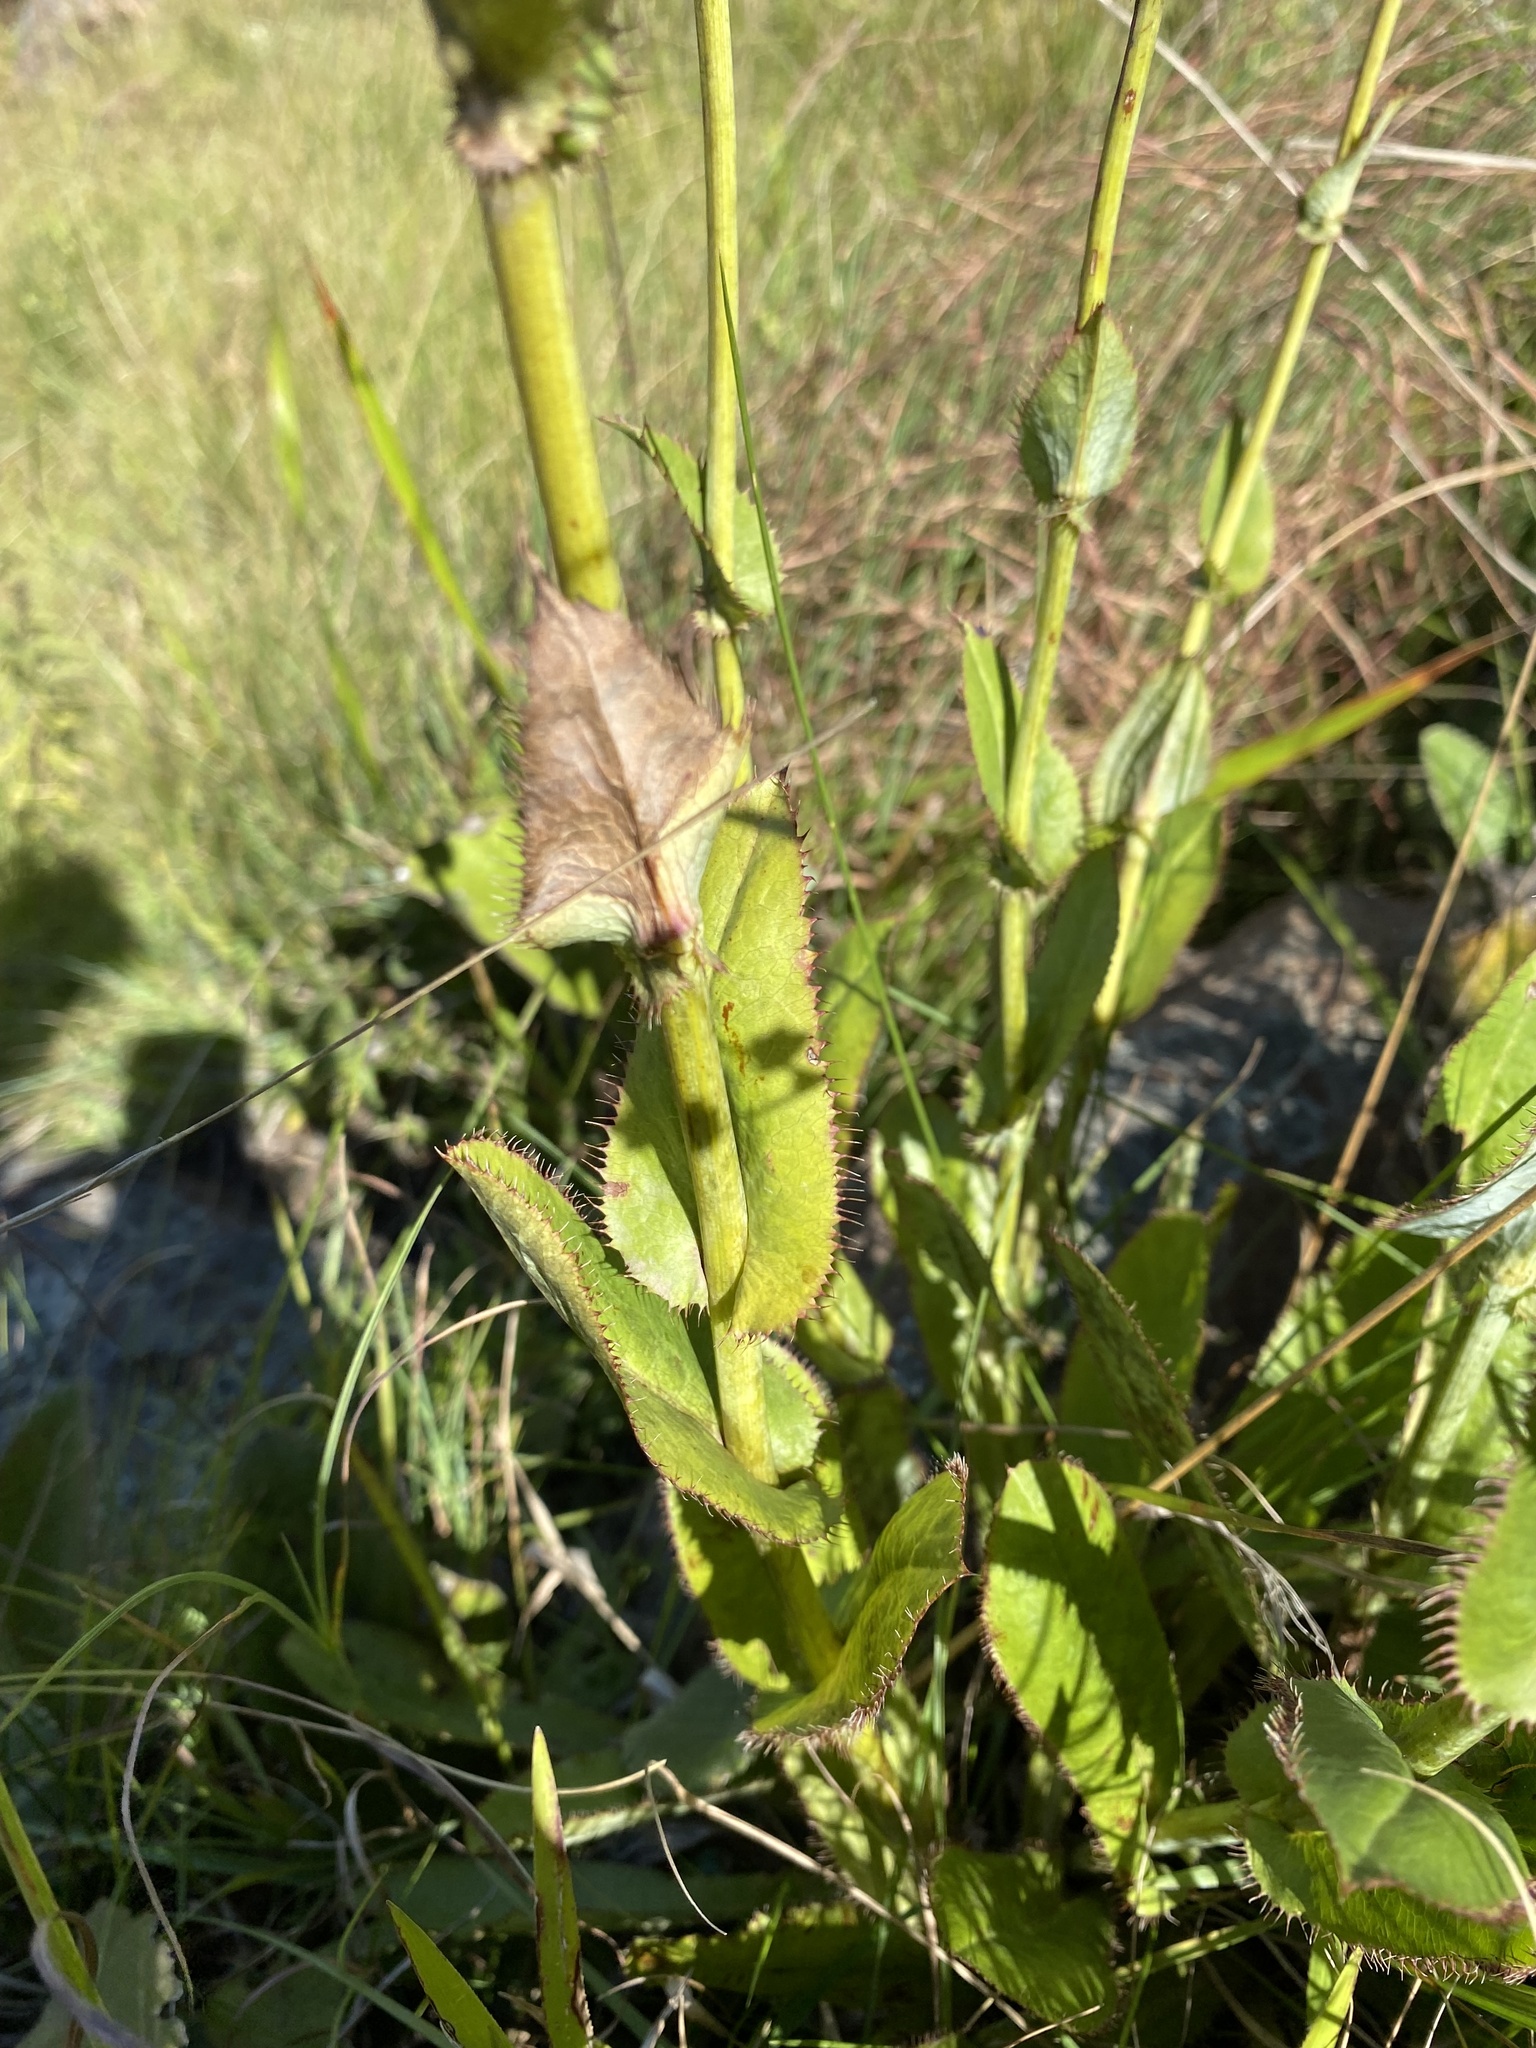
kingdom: Plantae
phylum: Tracheophyta
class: Magnoliopsida
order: Apiales
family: Apiaceae
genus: Alepidea
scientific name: Alepidea woodii
